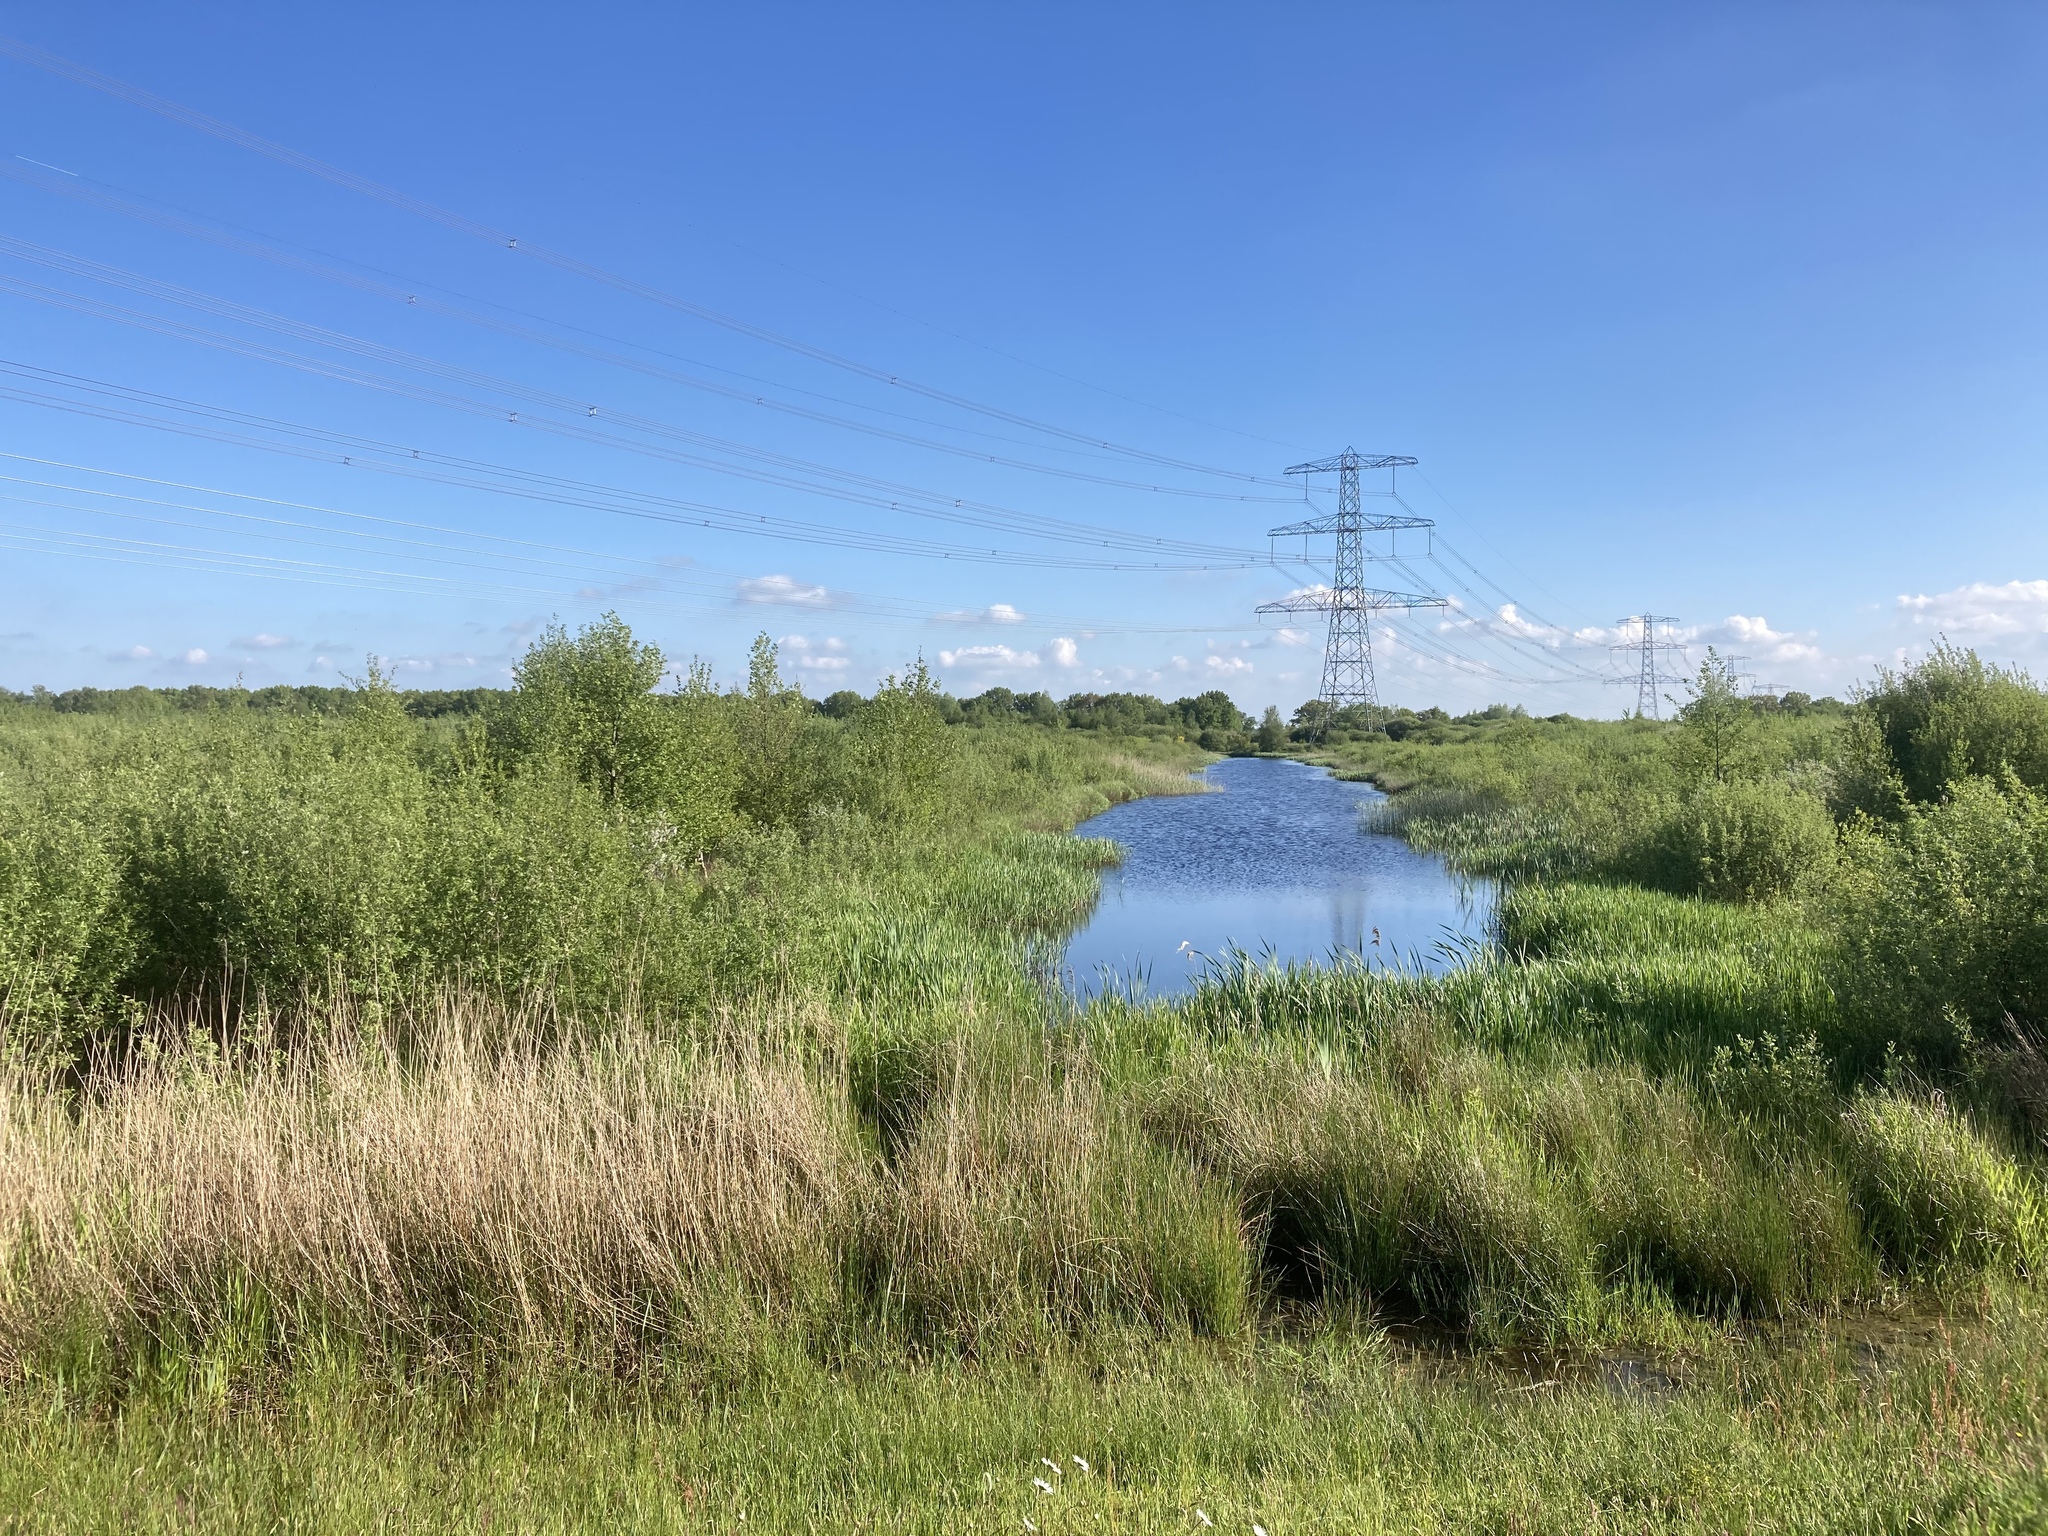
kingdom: Plantae
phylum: Tracheophyta
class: Liliopsida
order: Poales
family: Poaceae
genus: Phragmites
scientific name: Phragmites australis
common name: Common reed
